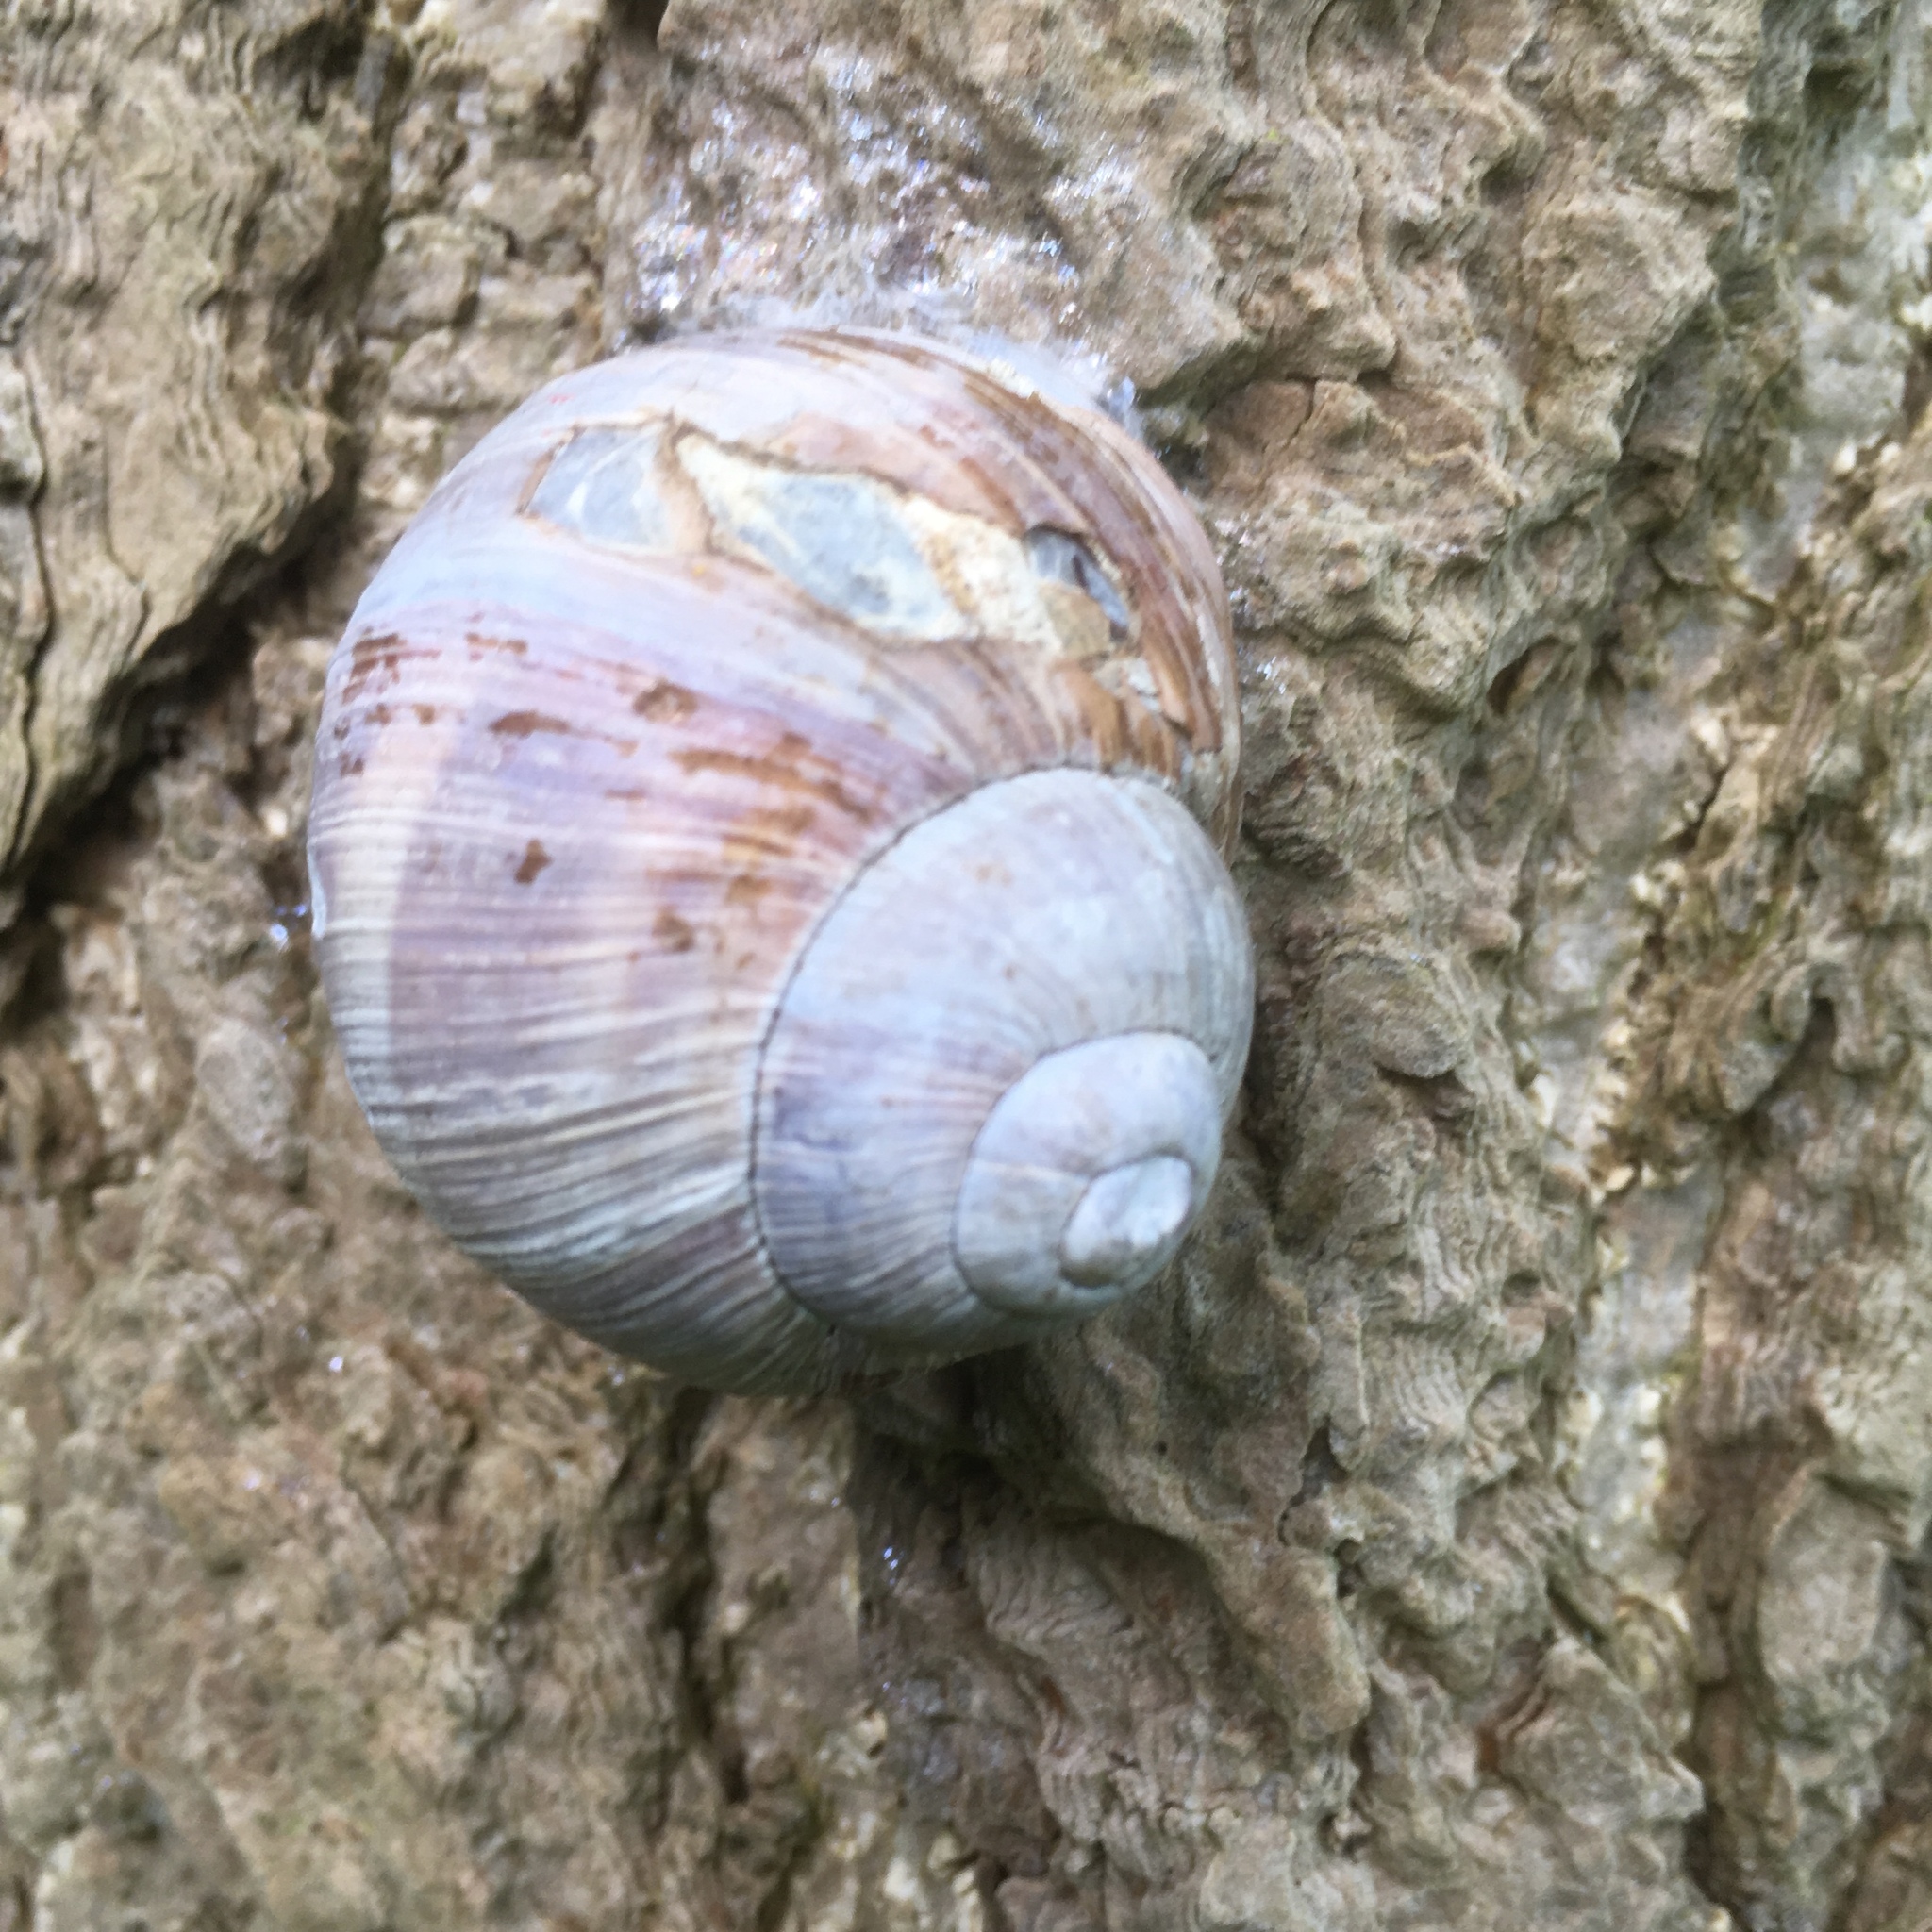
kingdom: Animalia
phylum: Mollusca
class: Gastropoda
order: Stylommatophora
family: Helicidae
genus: Helix
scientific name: Helix pomatia
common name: Roman snail
